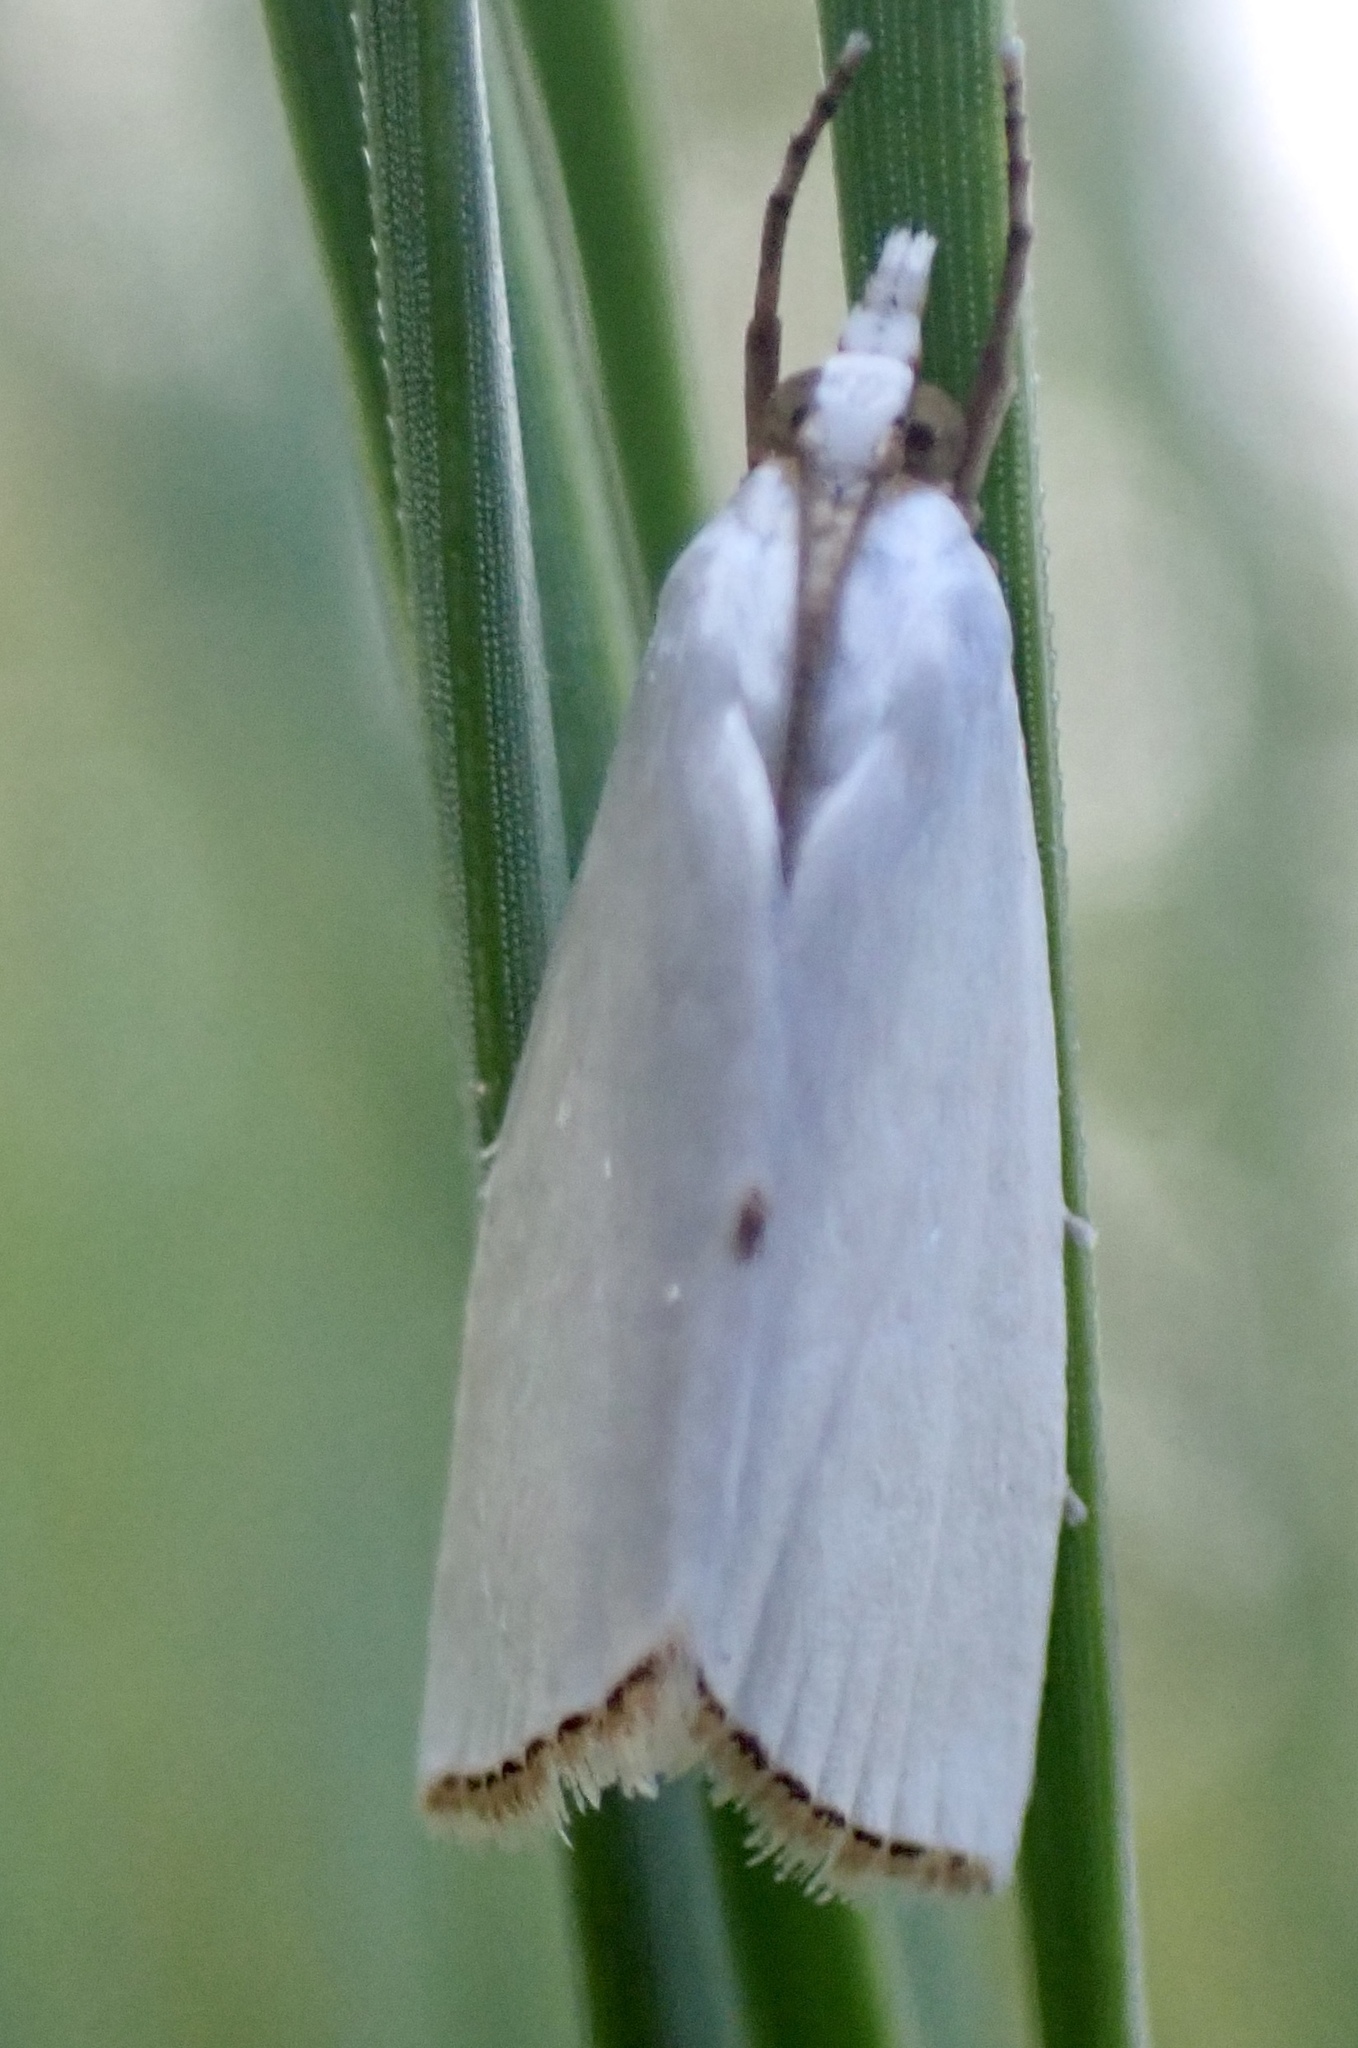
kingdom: Animalia
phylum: Arthropoda
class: Insecta
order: Lepidoptera
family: Crambidae
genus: Argyria
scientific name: Argyria nivalis
